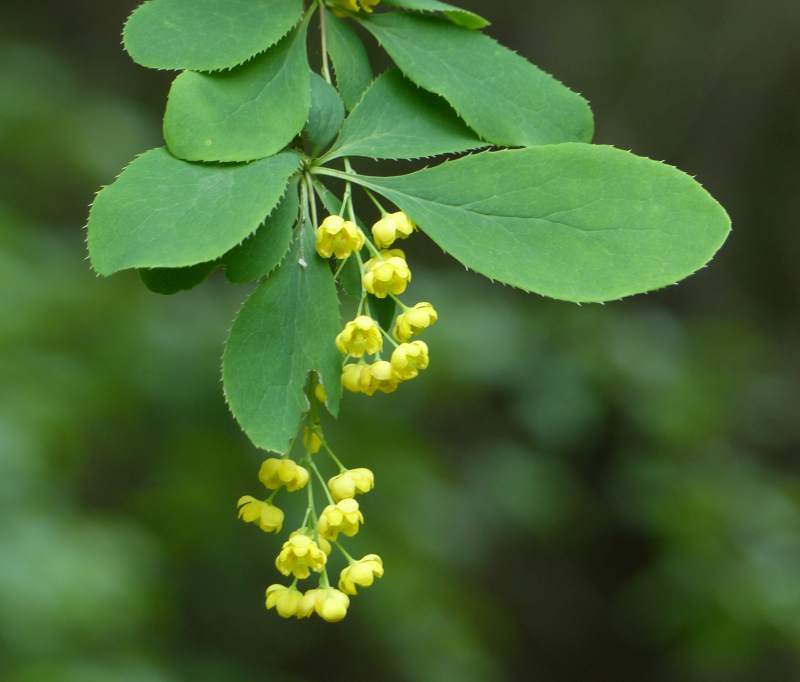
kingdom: Plantae
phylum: Tracheophyta
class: Magnoliopsida
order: Ranunculales
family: Berberidaceae
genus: Berberis
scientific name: Berberis vulgaris
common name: Barberry
